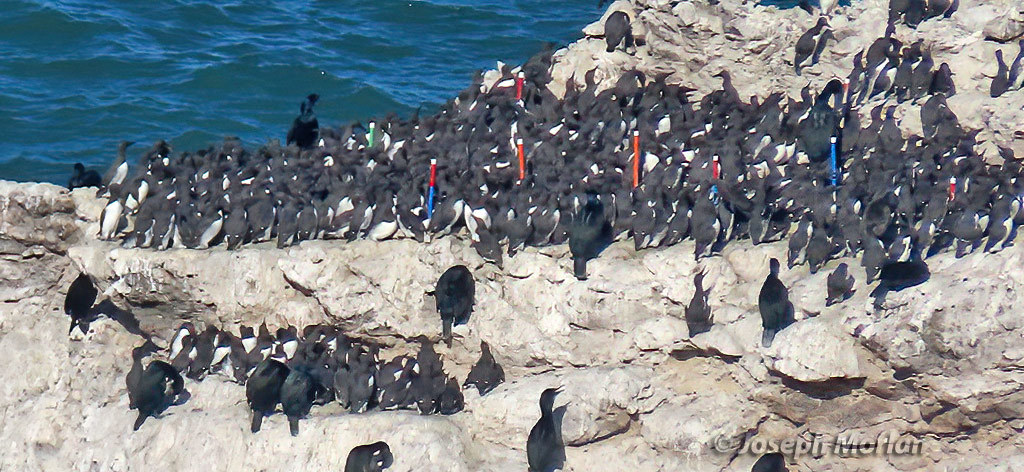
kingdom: Animalia
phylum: Chordata
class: Aves
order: Charadriiformes
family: Alcidae
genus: Uria
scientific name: Uria aalge
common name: Common murre
